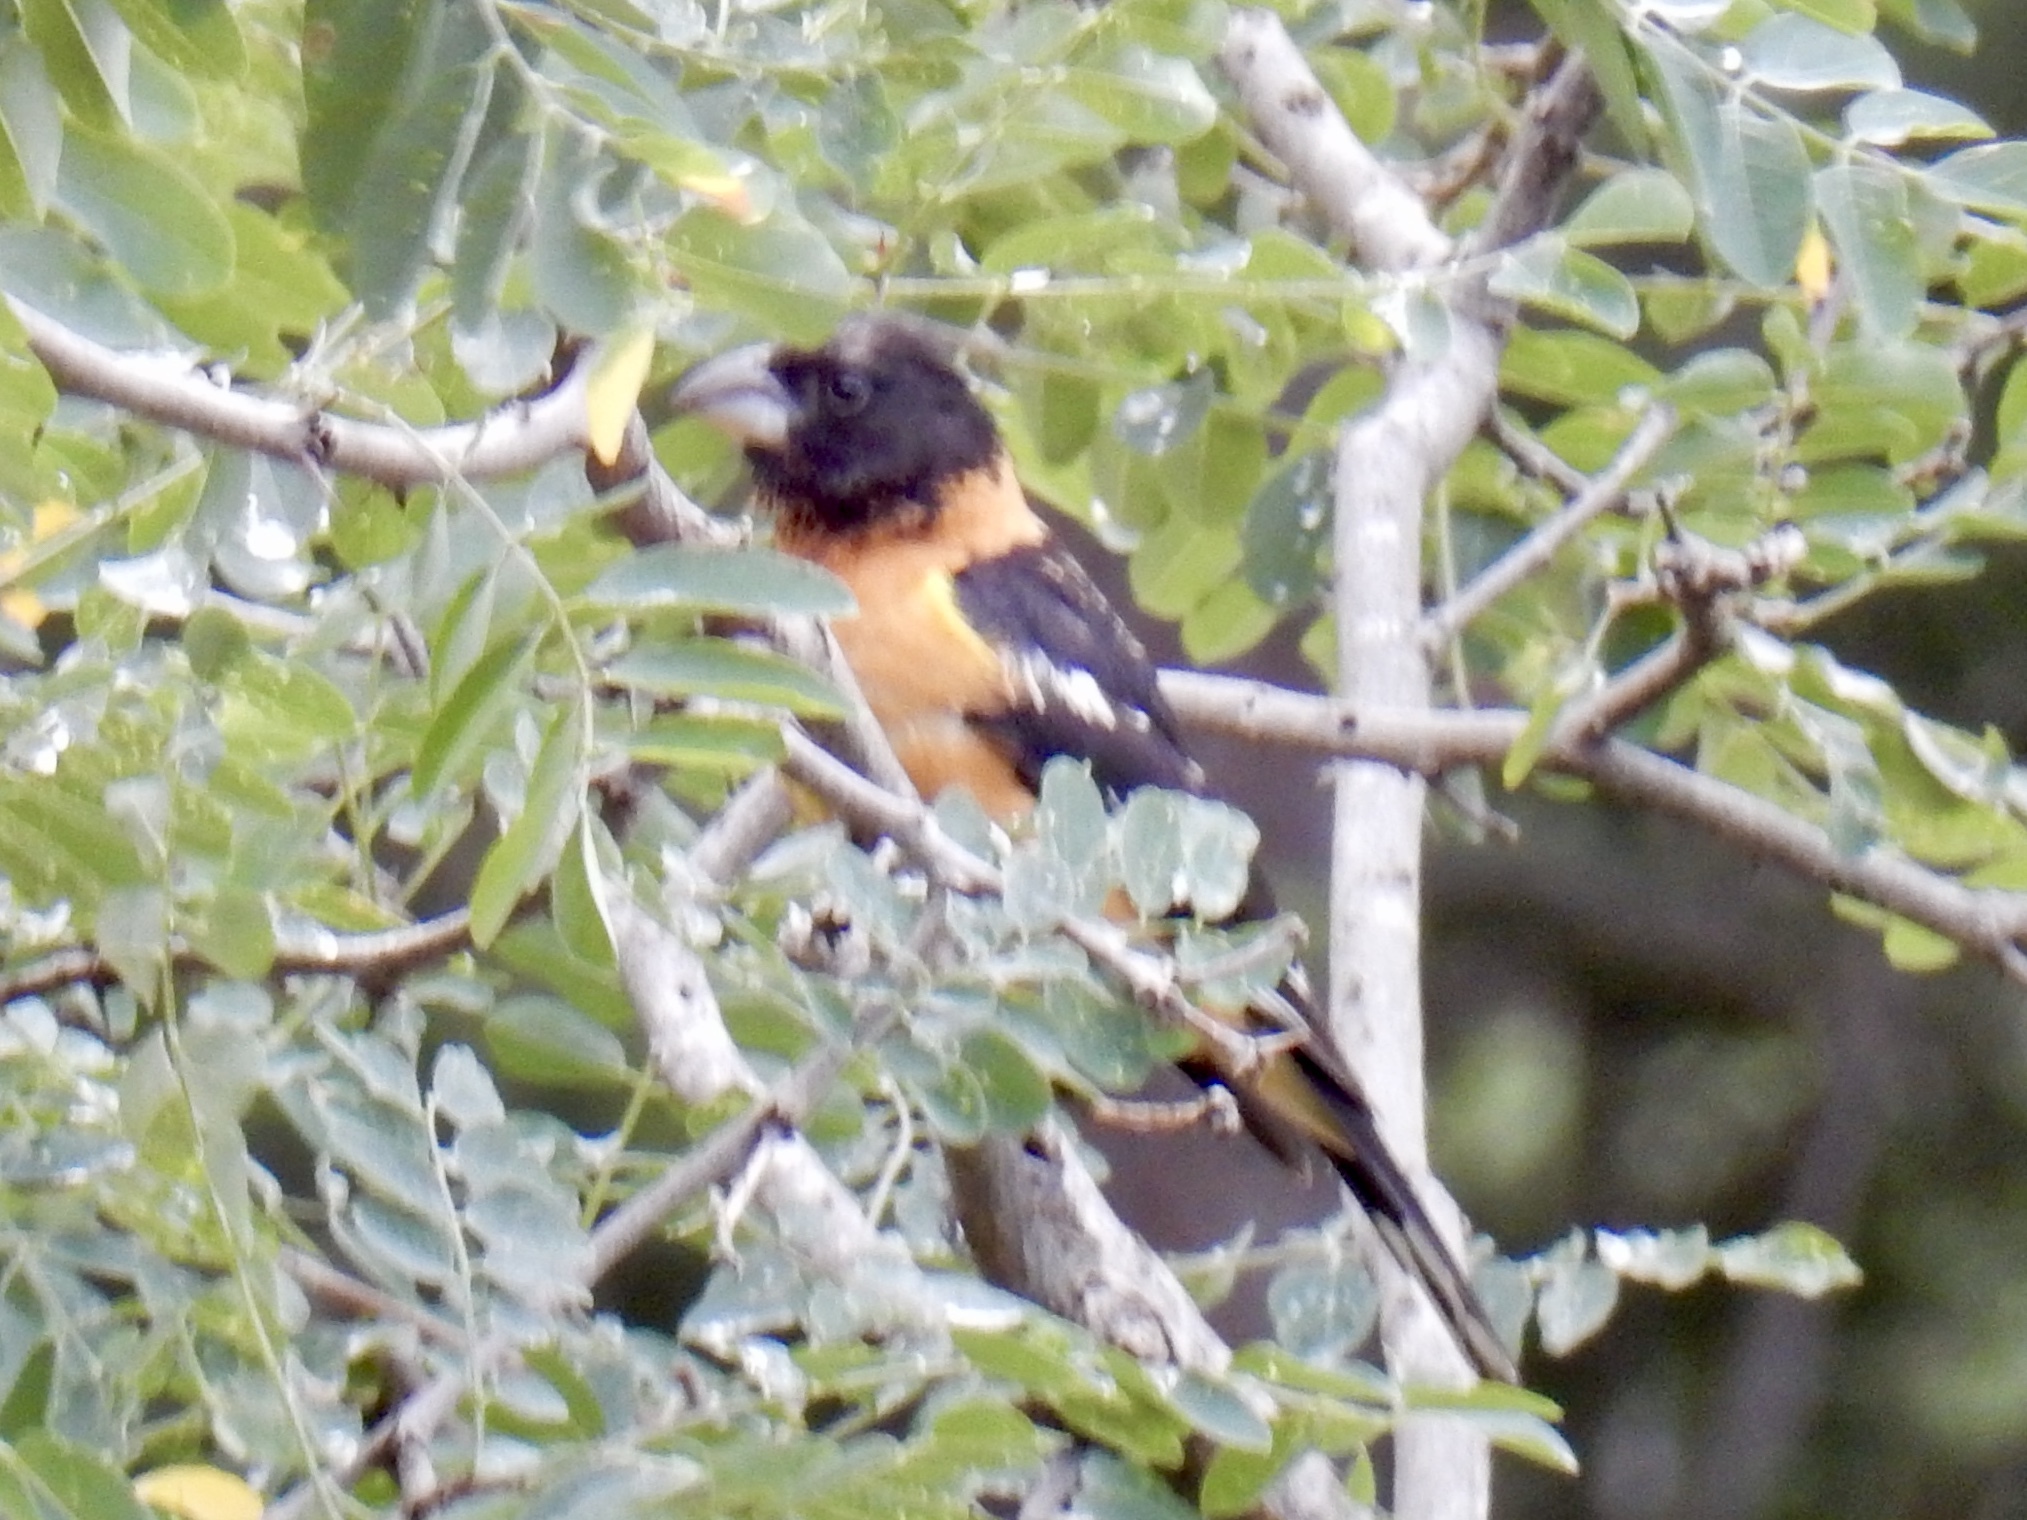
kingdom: Animalia
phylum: Chordata
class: Aves
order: Passeriformes
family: Cardinalidae
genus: Pheucticus
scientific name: Pheucticus melanocephalus
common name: Black-headed grosbeak
